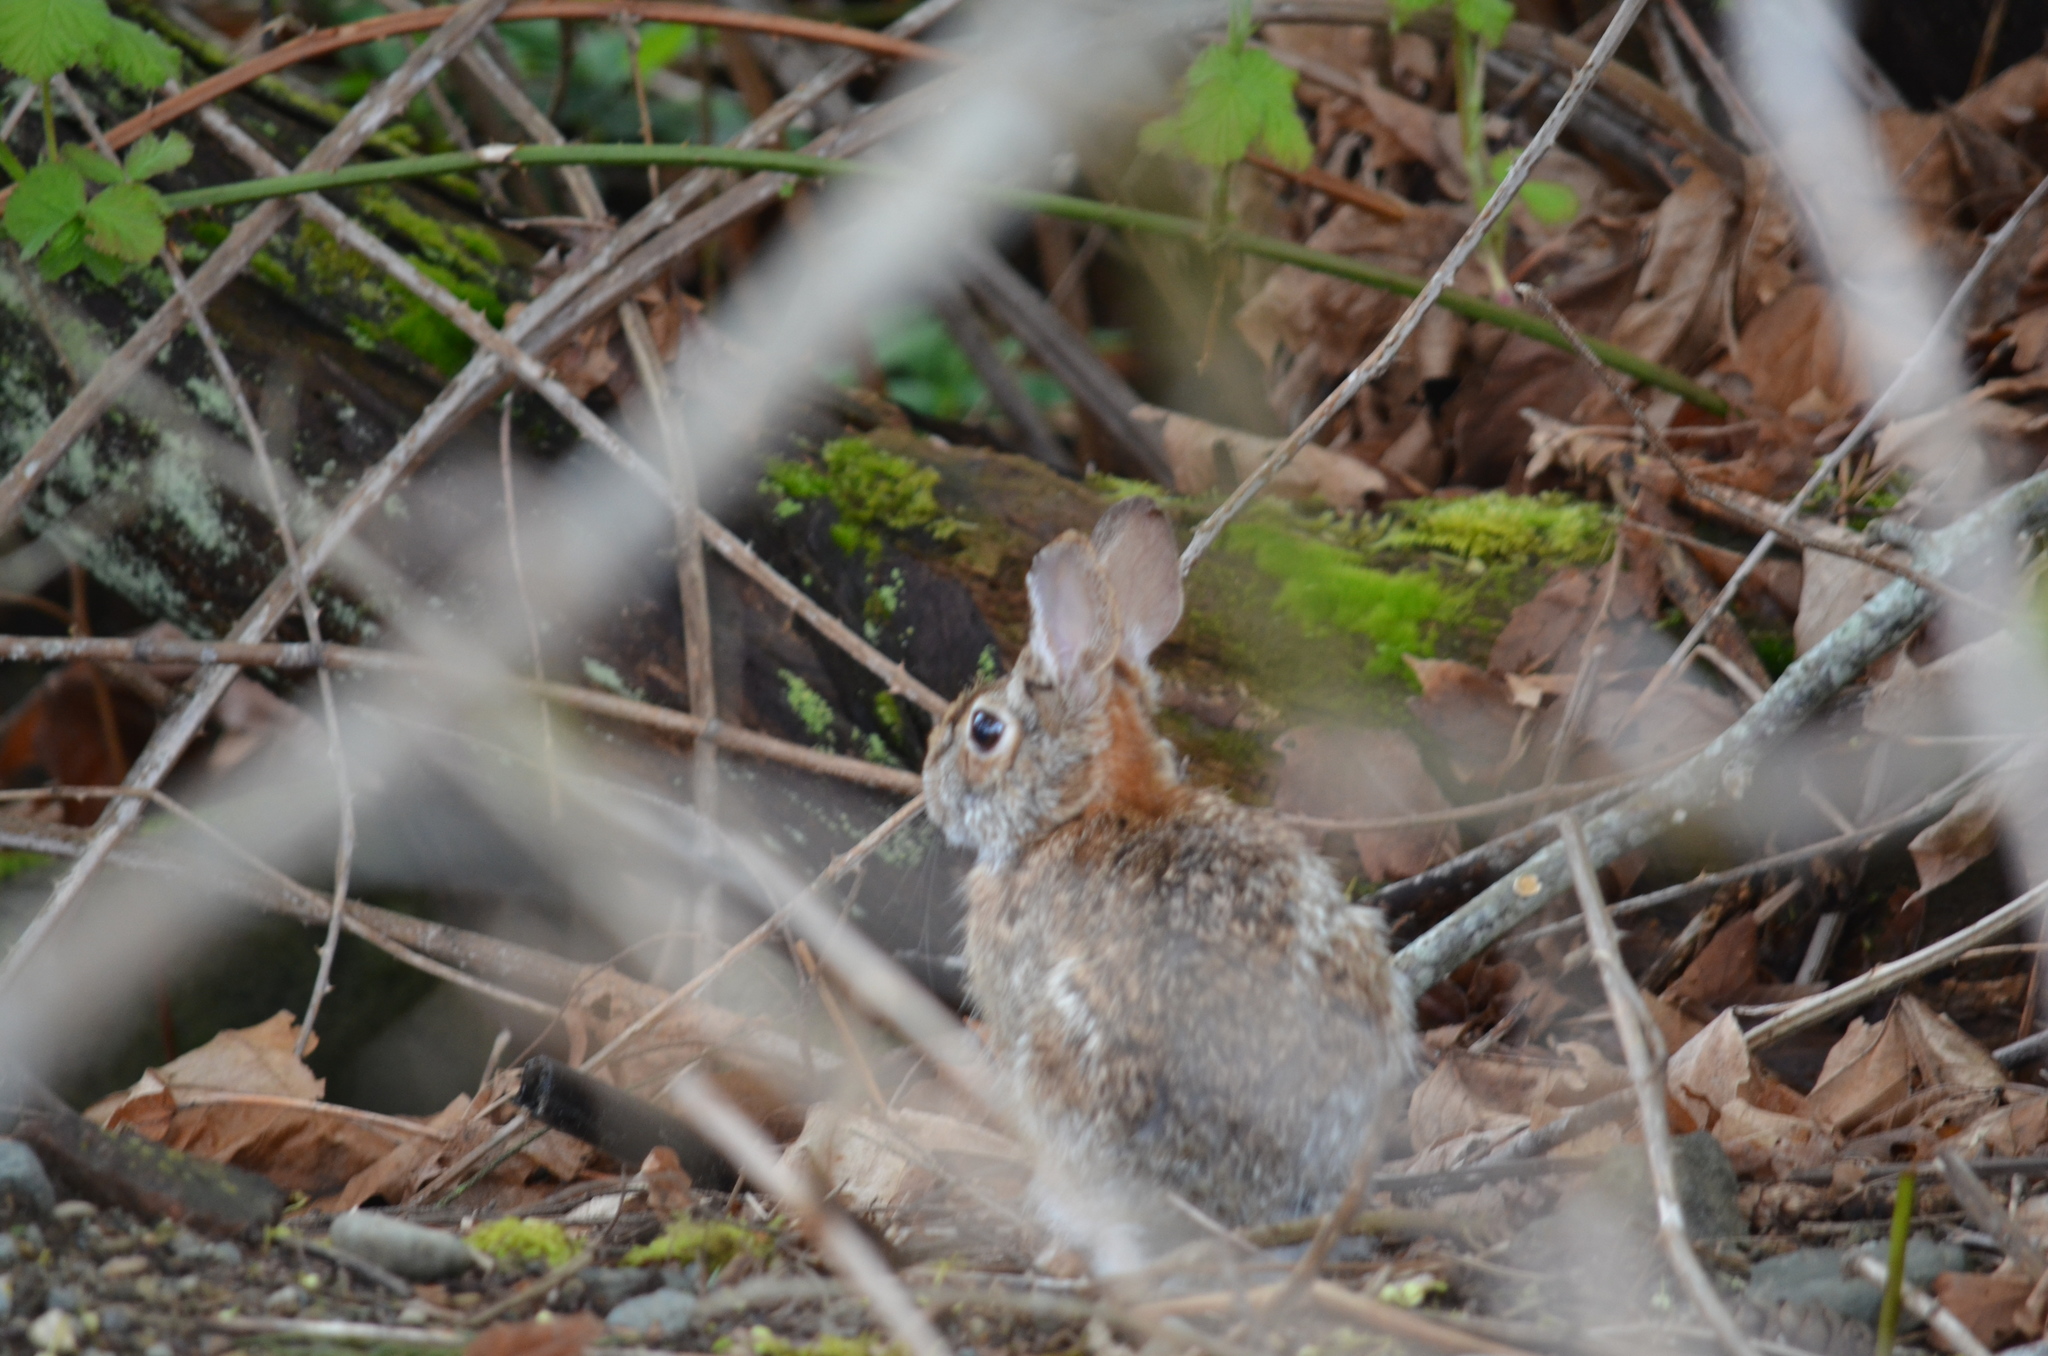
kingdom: Animalia
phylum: Chordata
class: Mammalia
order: Lagomorpha
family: Leporidae
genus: Sylvilagus
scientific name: Sylvilagus floridanus
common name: Eastern cottontail
